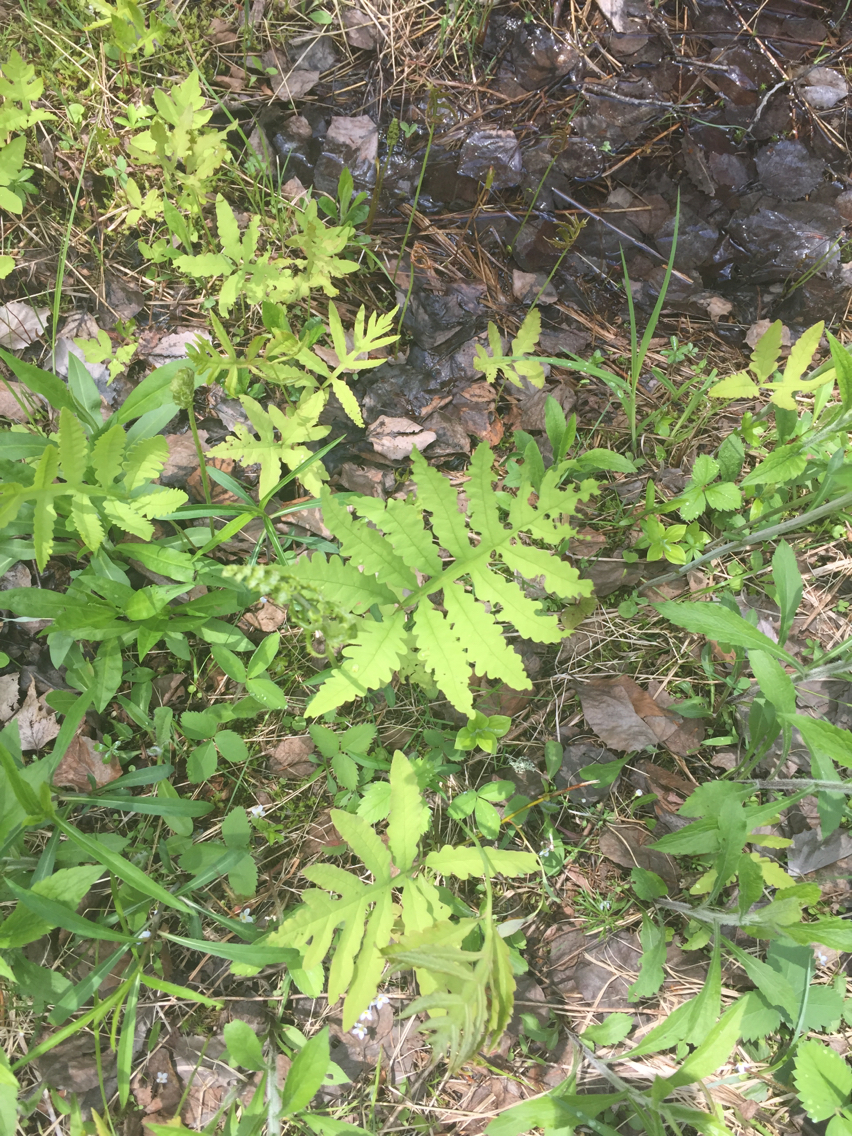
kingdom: Plantae
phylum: Tracheophyta
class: Polypodiopsida
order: Polypodiales
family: Onocleaceae
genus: Onoclea
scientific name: Onoclea sensibilis
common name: Sensitive fern
